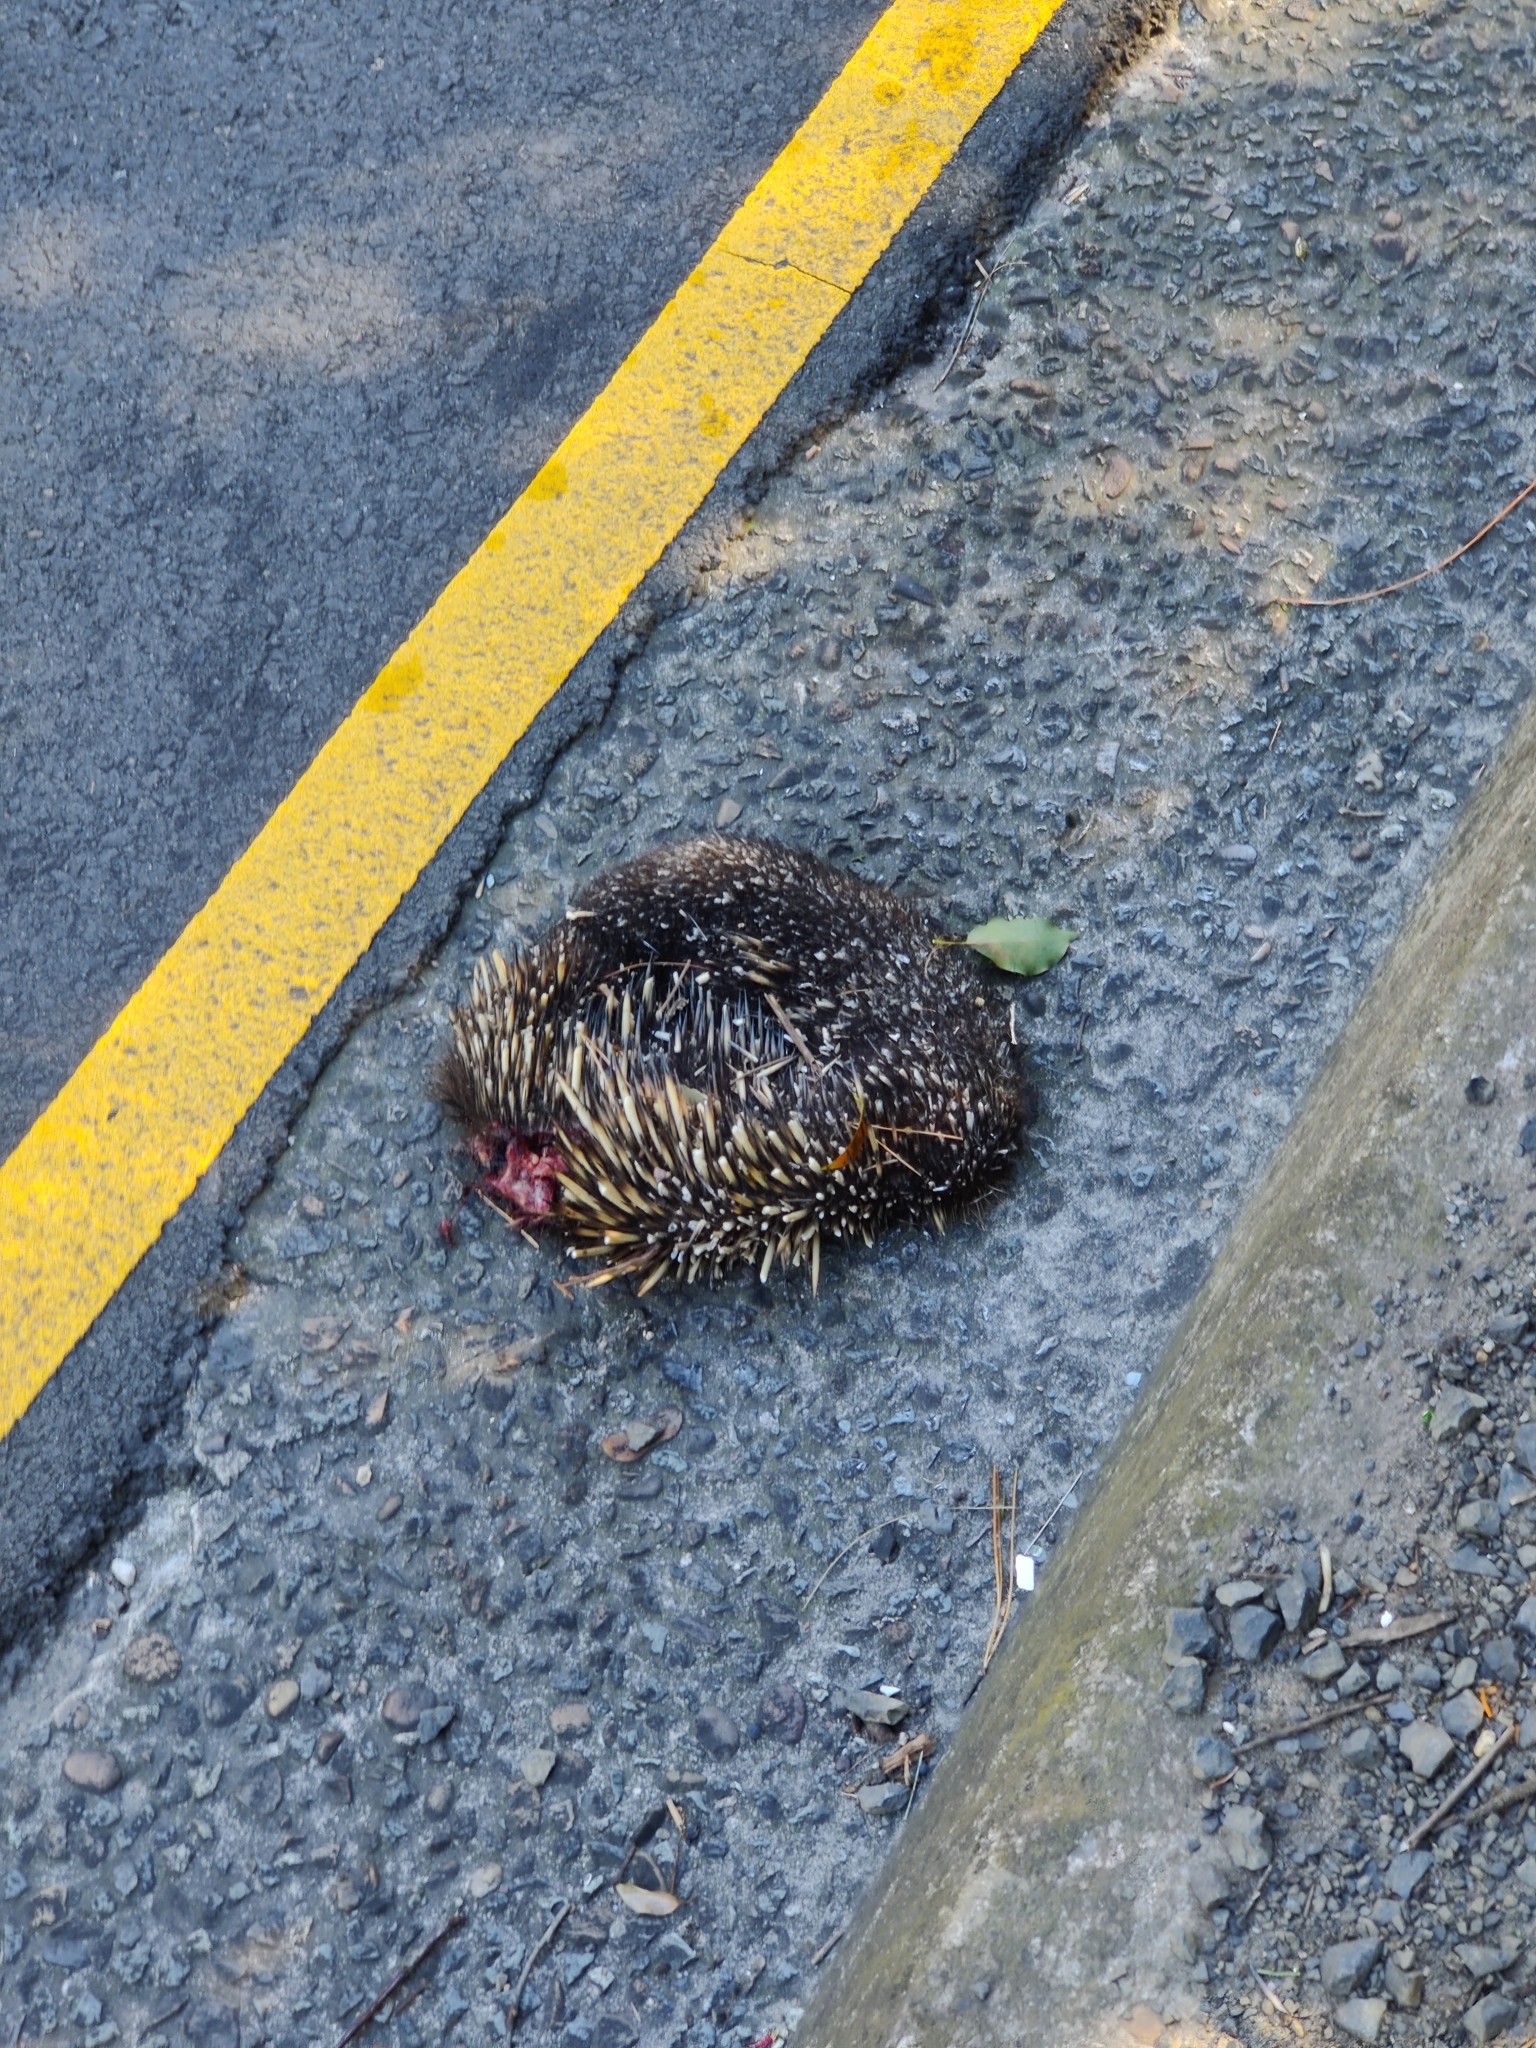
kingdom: Animalia
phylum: Chordata
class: Mammalia
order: Monotremata
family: Tachyglossidae
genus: Tachyglossus
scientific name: Tachyglossus aculeatus
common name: Short-beaked echidna
